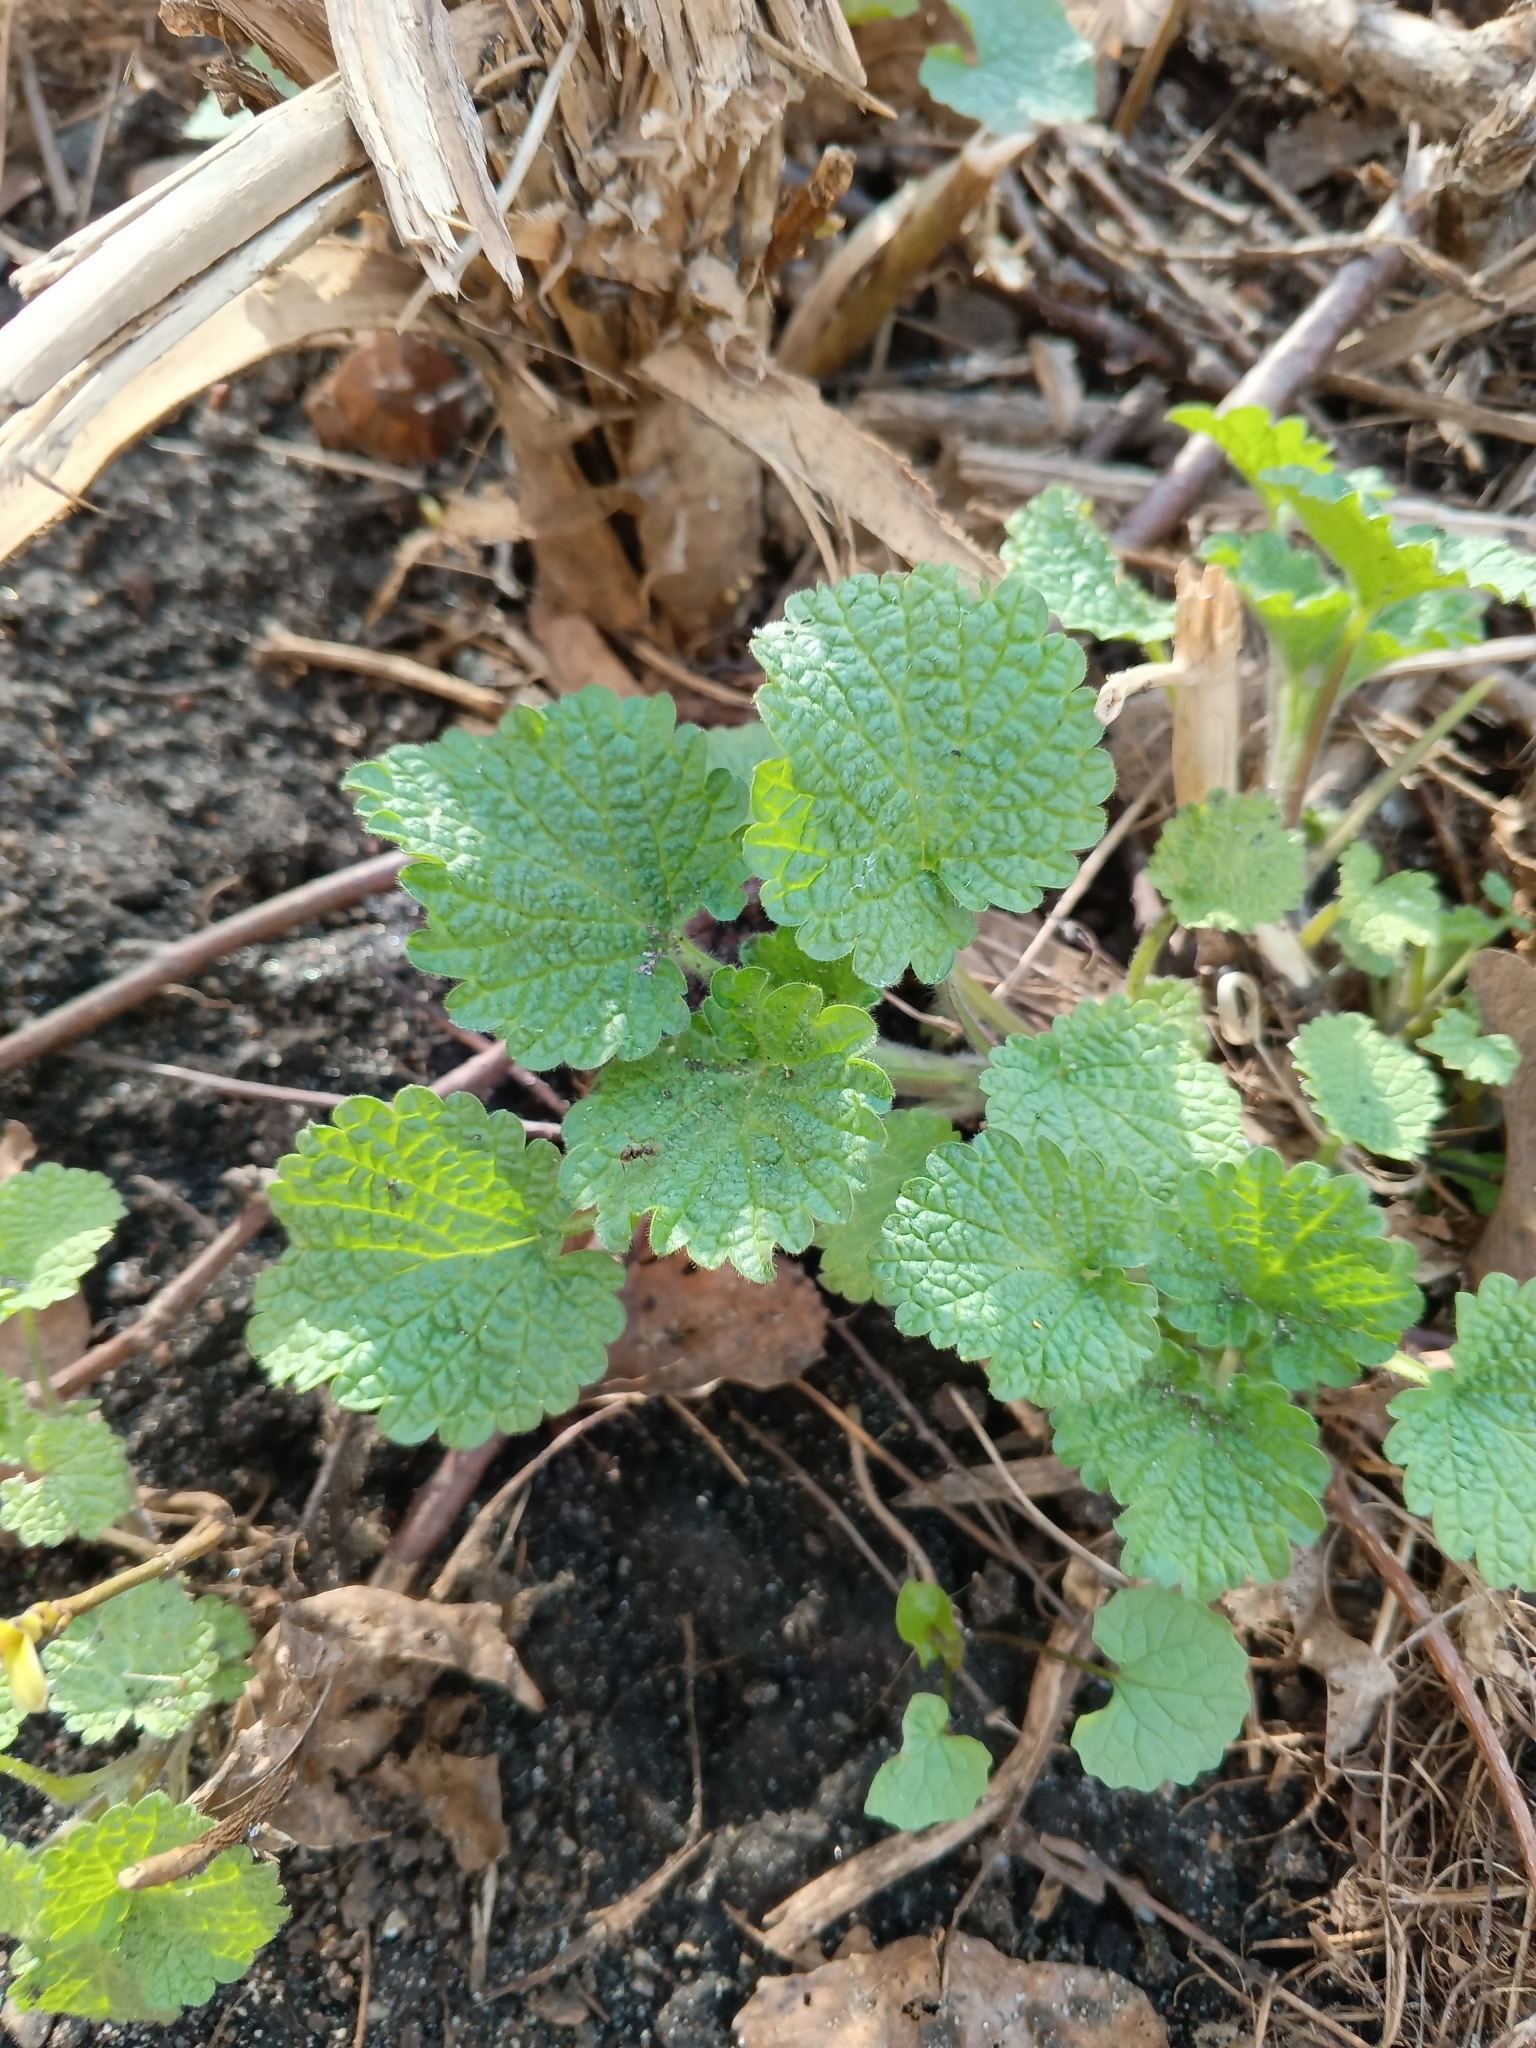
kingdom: Plantae
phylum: Tracheophyta
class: Magnoliopsida
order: Lamiales
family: Lamiaceae
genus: Ballota
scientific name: Ballota nigra
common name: Black horehound
